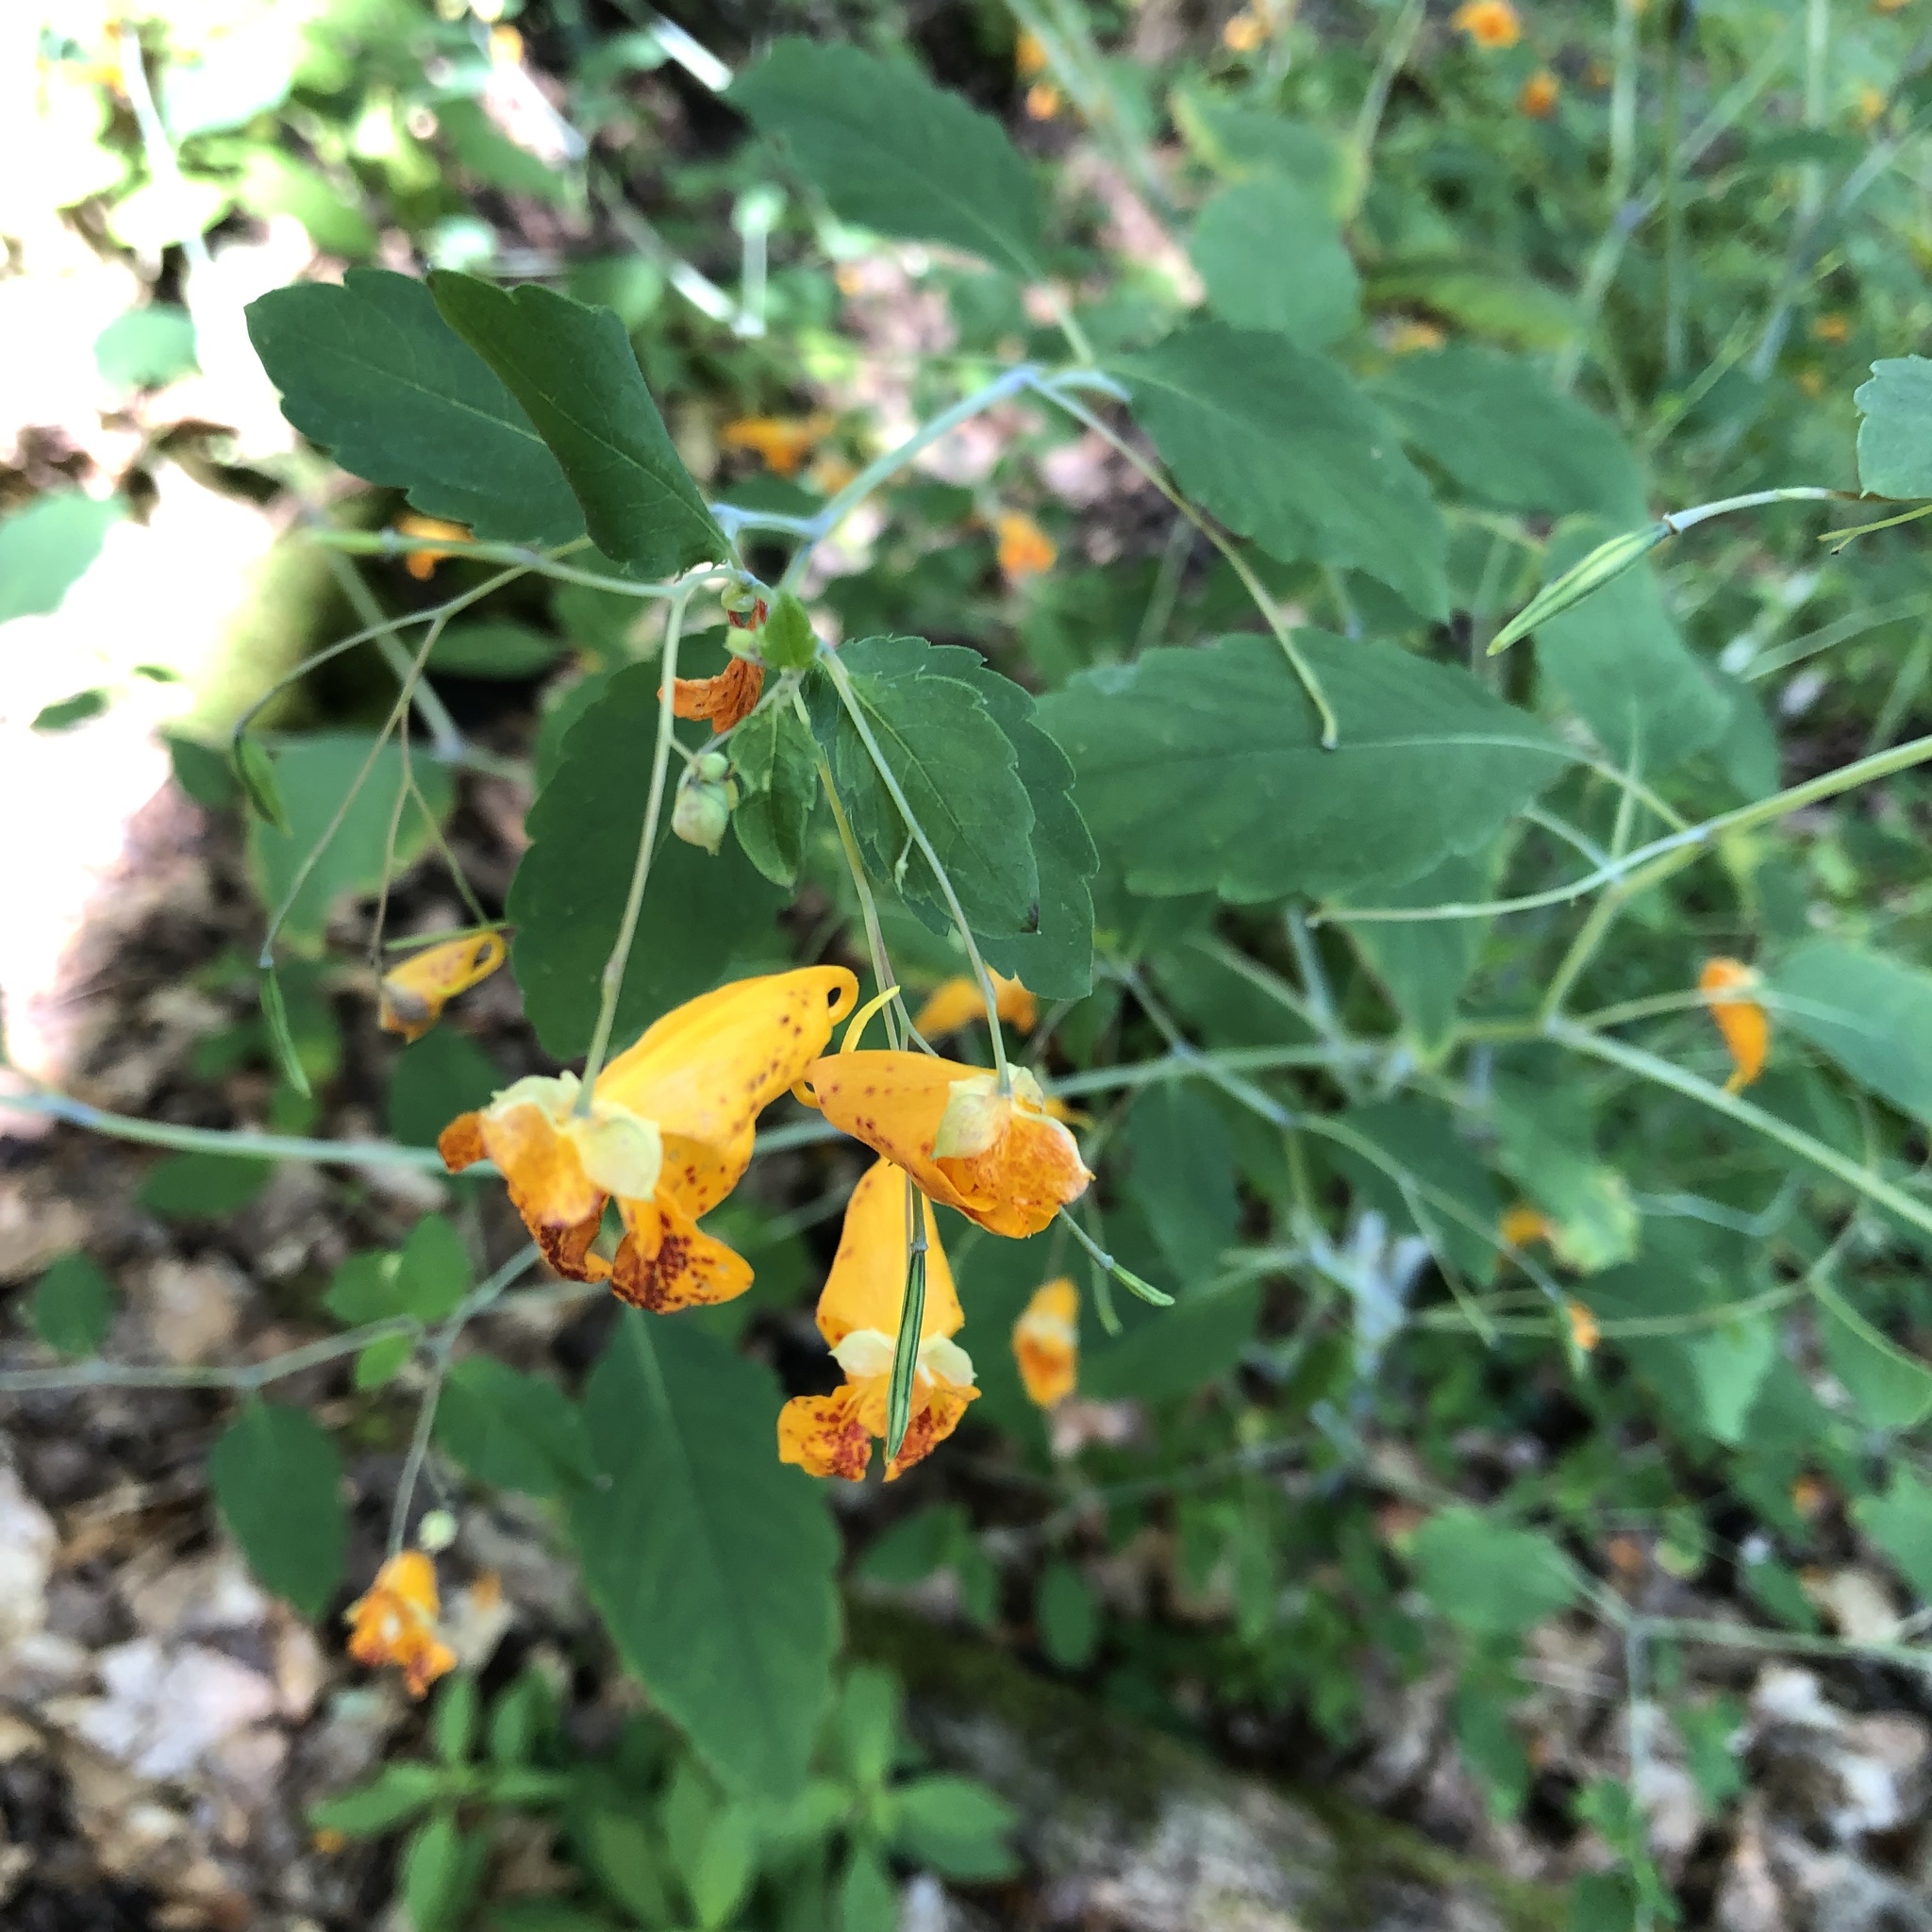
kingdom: Plantae
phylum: Tracheophyta
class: Magnoliopsida
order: Ericales
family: Balsaminaceae
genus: Impatiens
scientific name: Impatiens capensis
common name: Orange balsam
